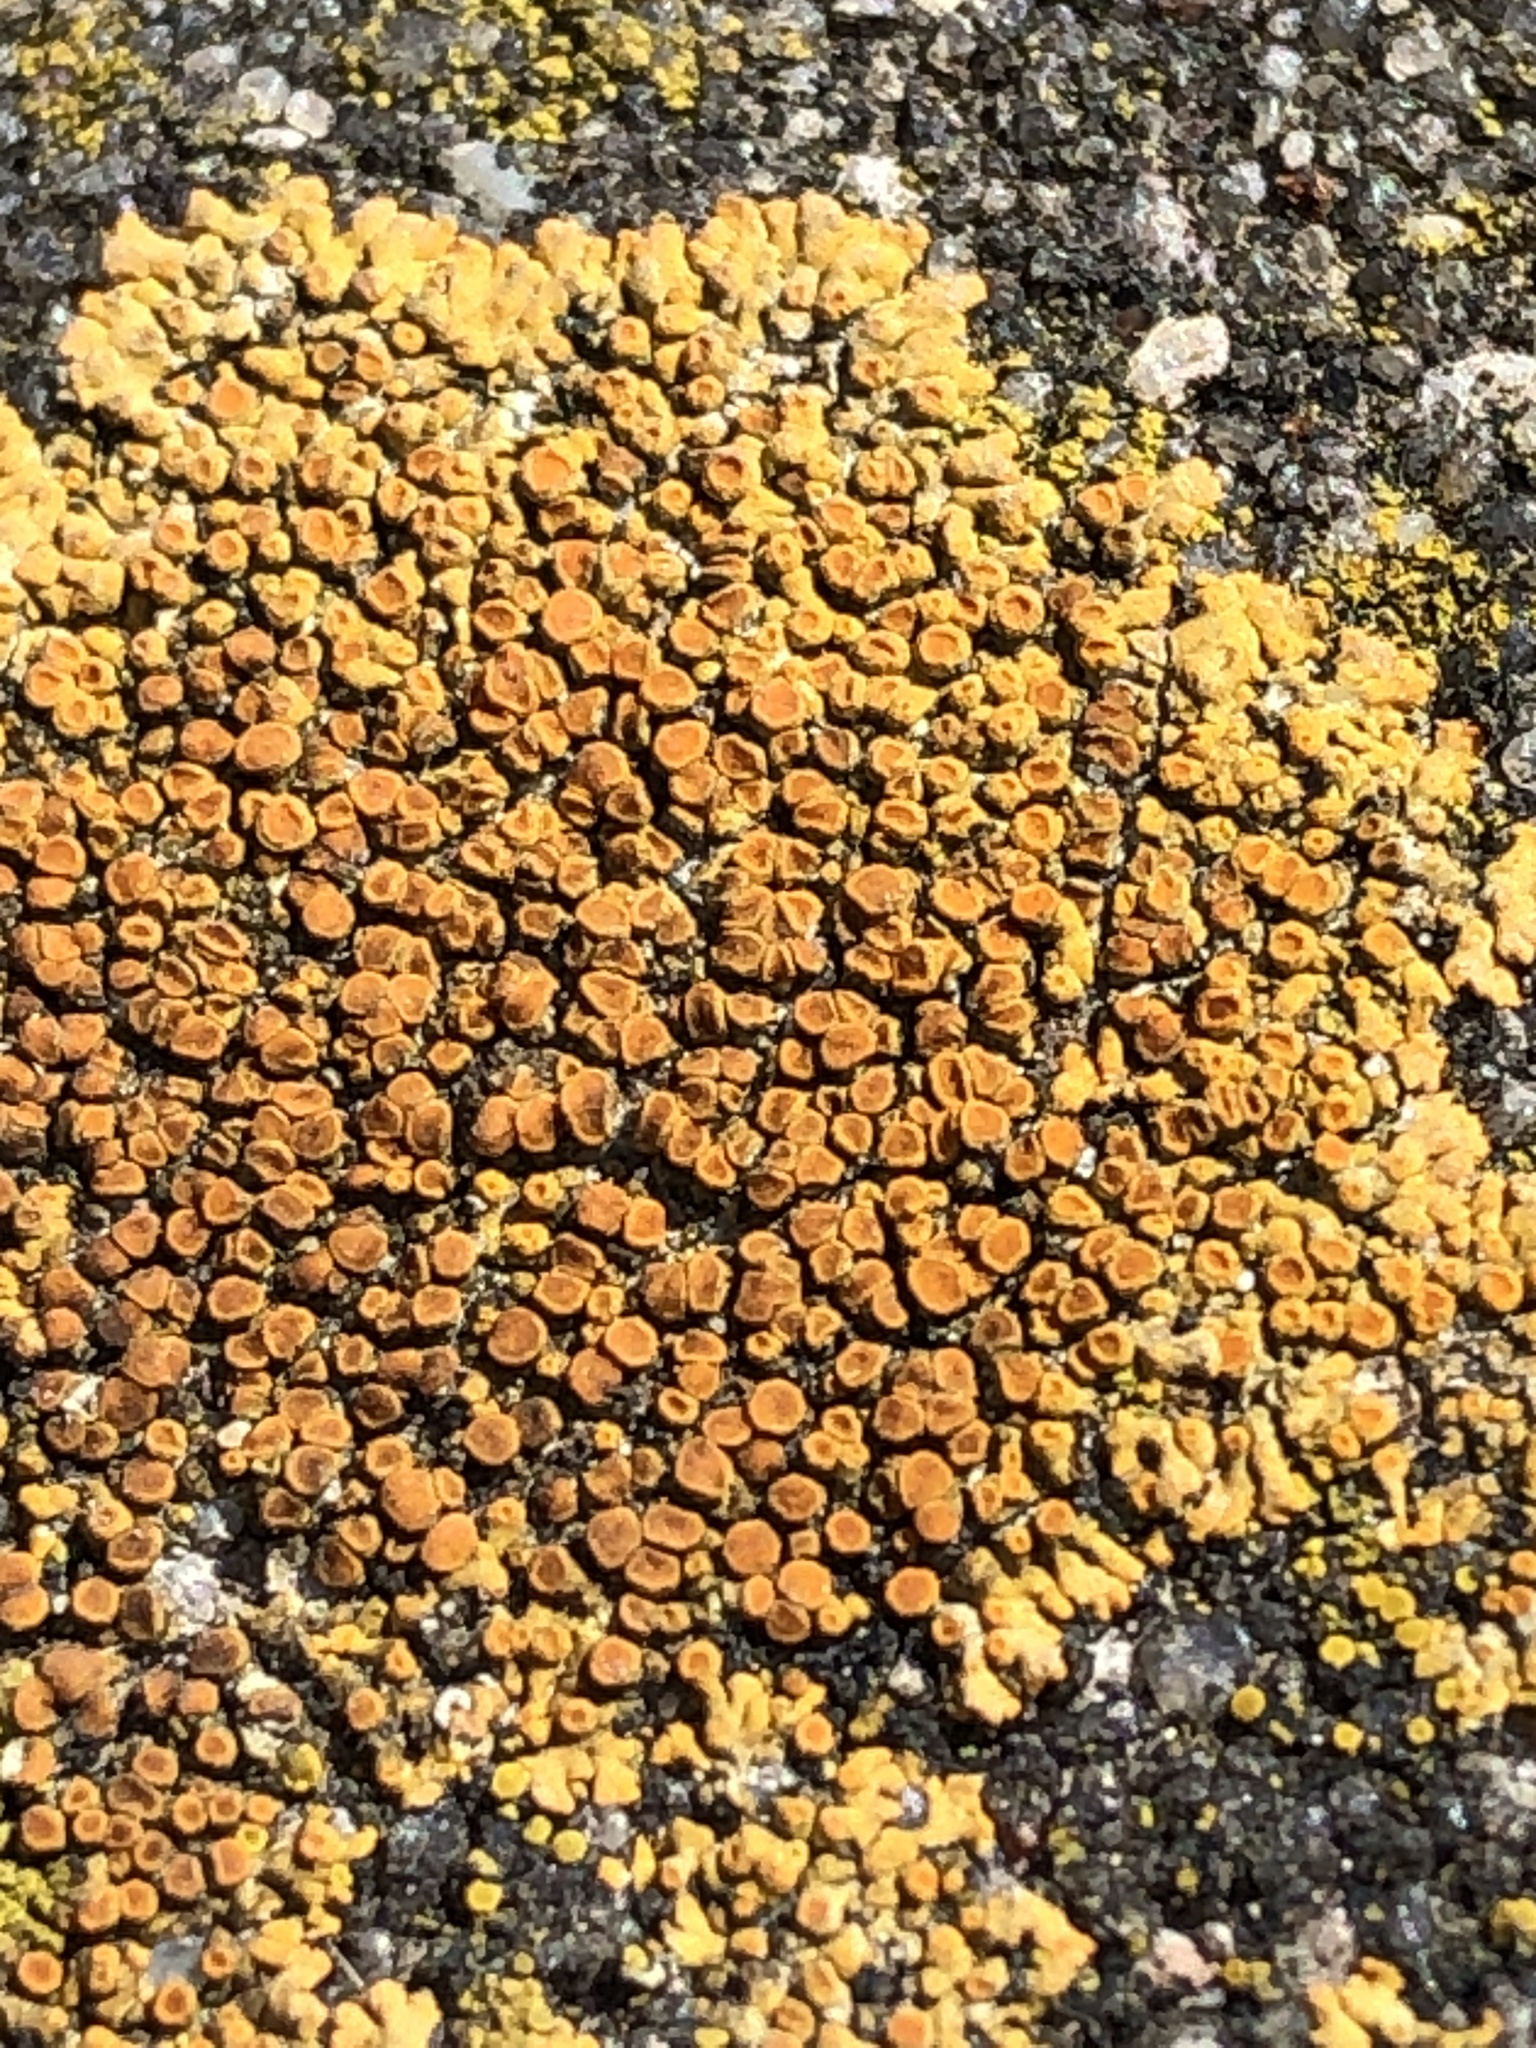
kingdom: Fungi
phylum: Ascomycota
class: Lecanoromycetes
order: Teloschistales
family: Teloschistaceae
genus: Calogaya
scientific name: Calogaya saxicola
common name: Rock jewel lichen
